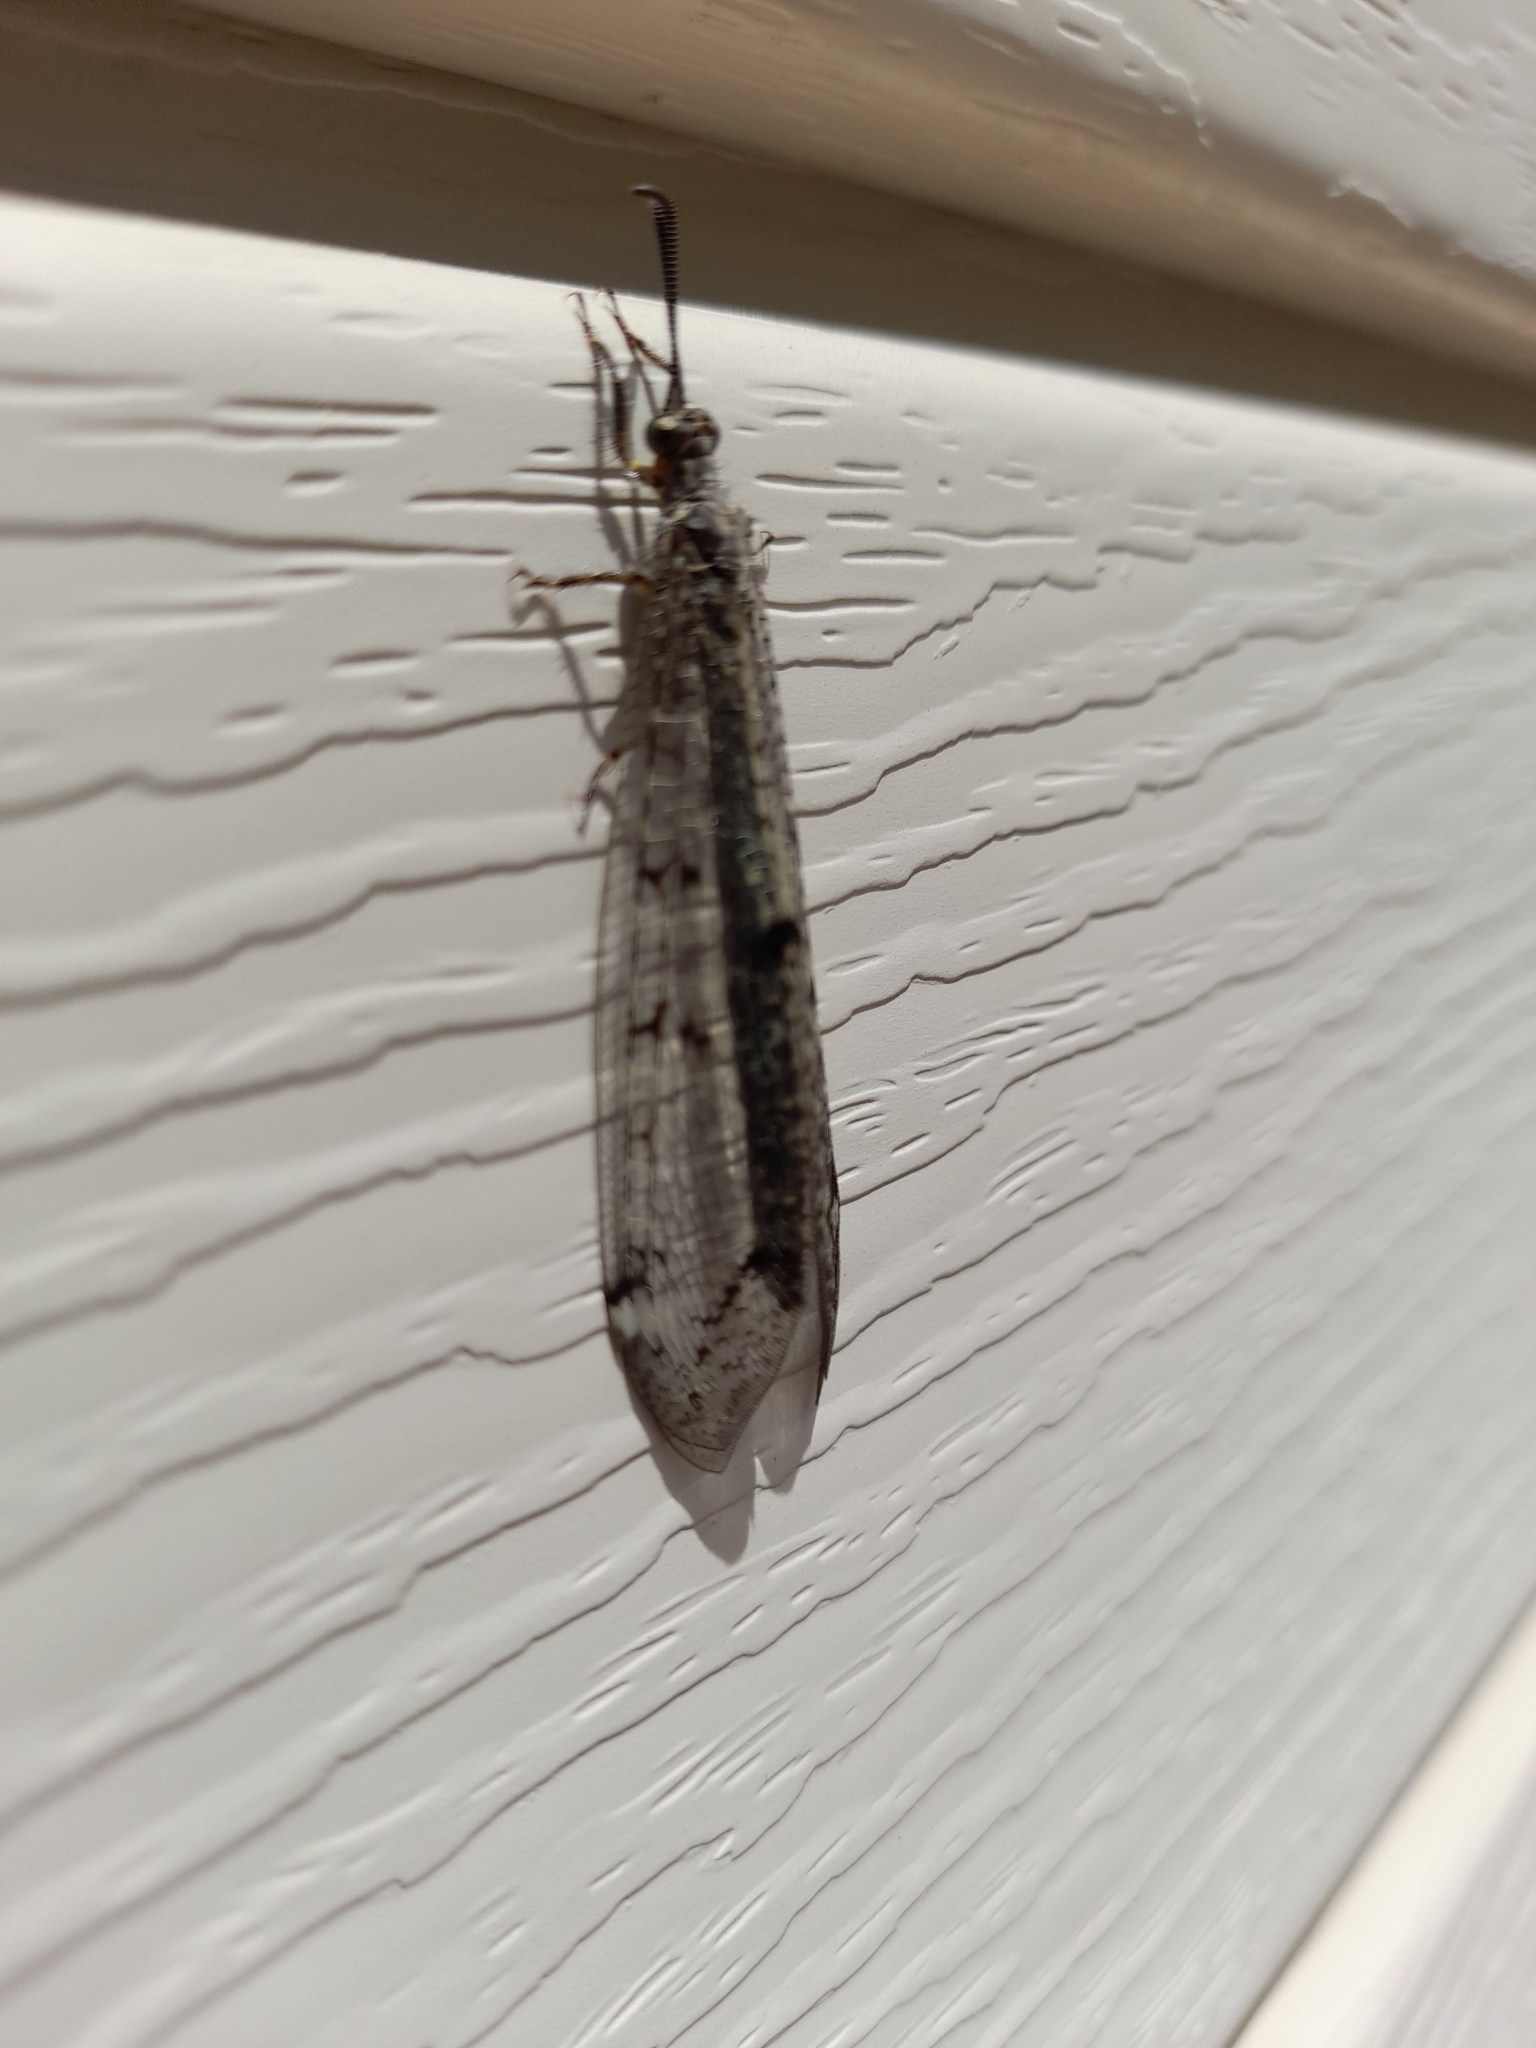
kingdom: Animalia
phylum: Arthropoda
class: Insecta
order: Neuroptera
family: Myrmeleontidae
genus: Distoleon
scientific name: Distoleon tetragrammicus
